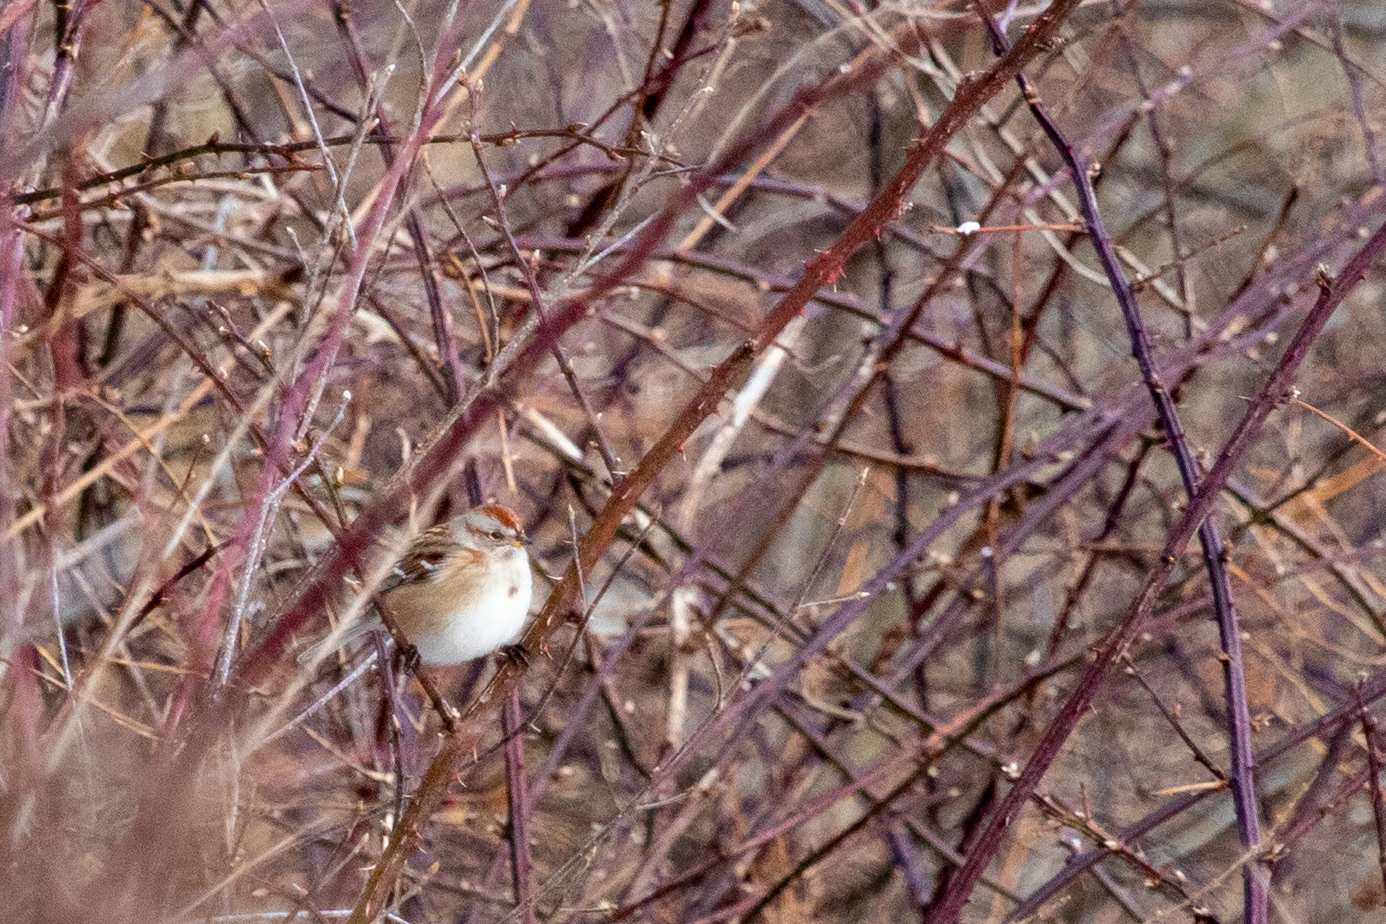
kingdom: Animalia
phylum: Chordata
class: Aves
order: Passeriformes
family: Passerellidae
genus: Spizelloides
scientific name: Spizelloides arborea
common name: American tree sparrow
